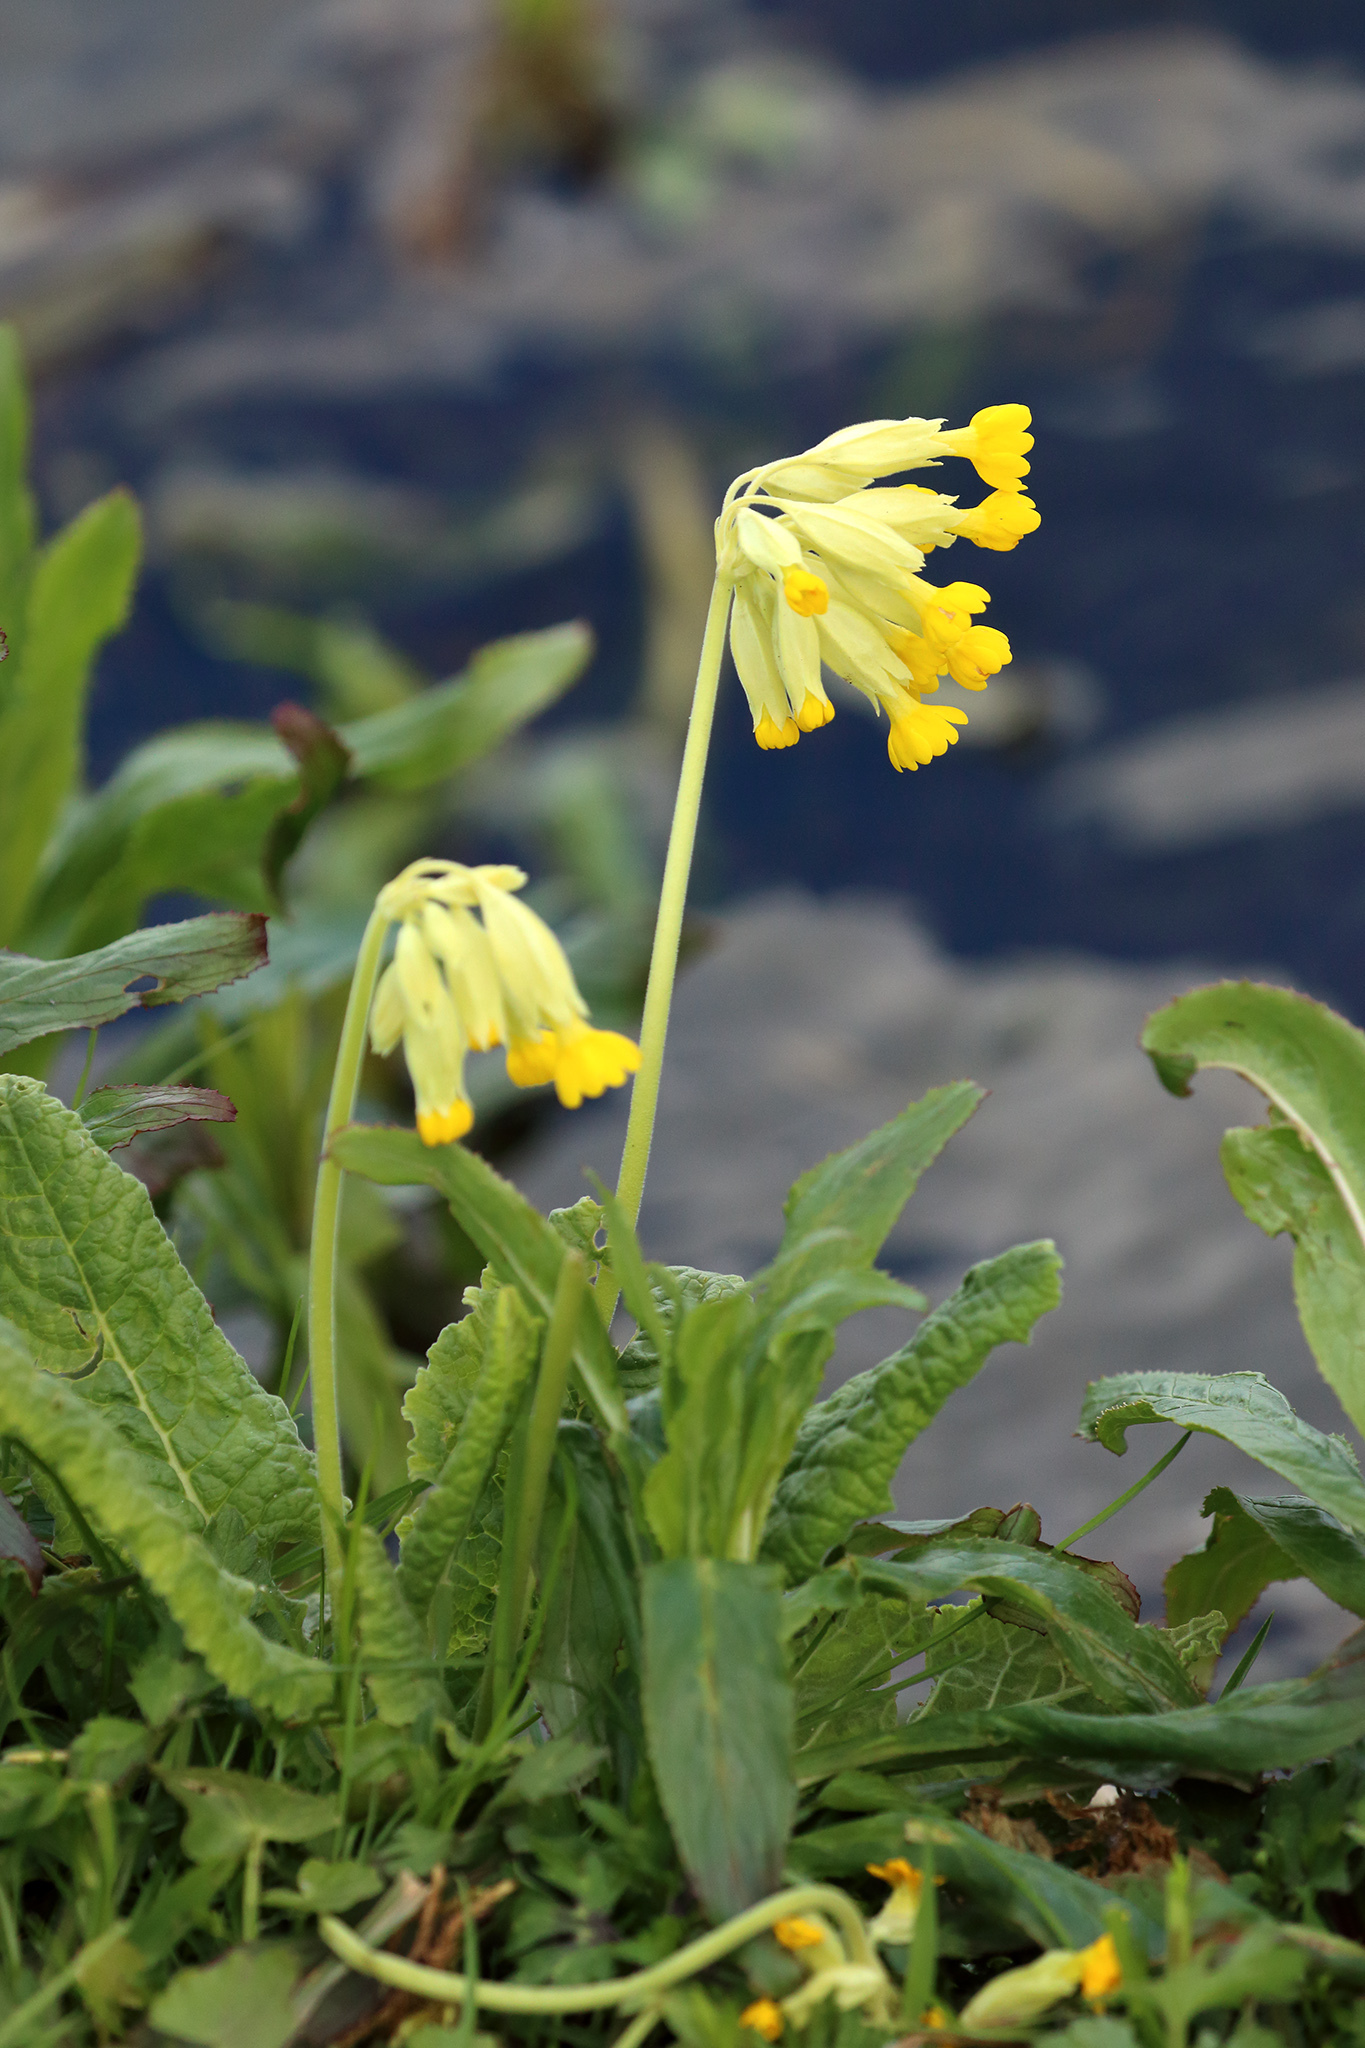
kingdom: Plantae
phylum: Tracheophyta
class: Magnoliopsida
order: Ericales
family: Primulaceae
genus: Primula
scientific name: Primula veris
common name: Cowslip
